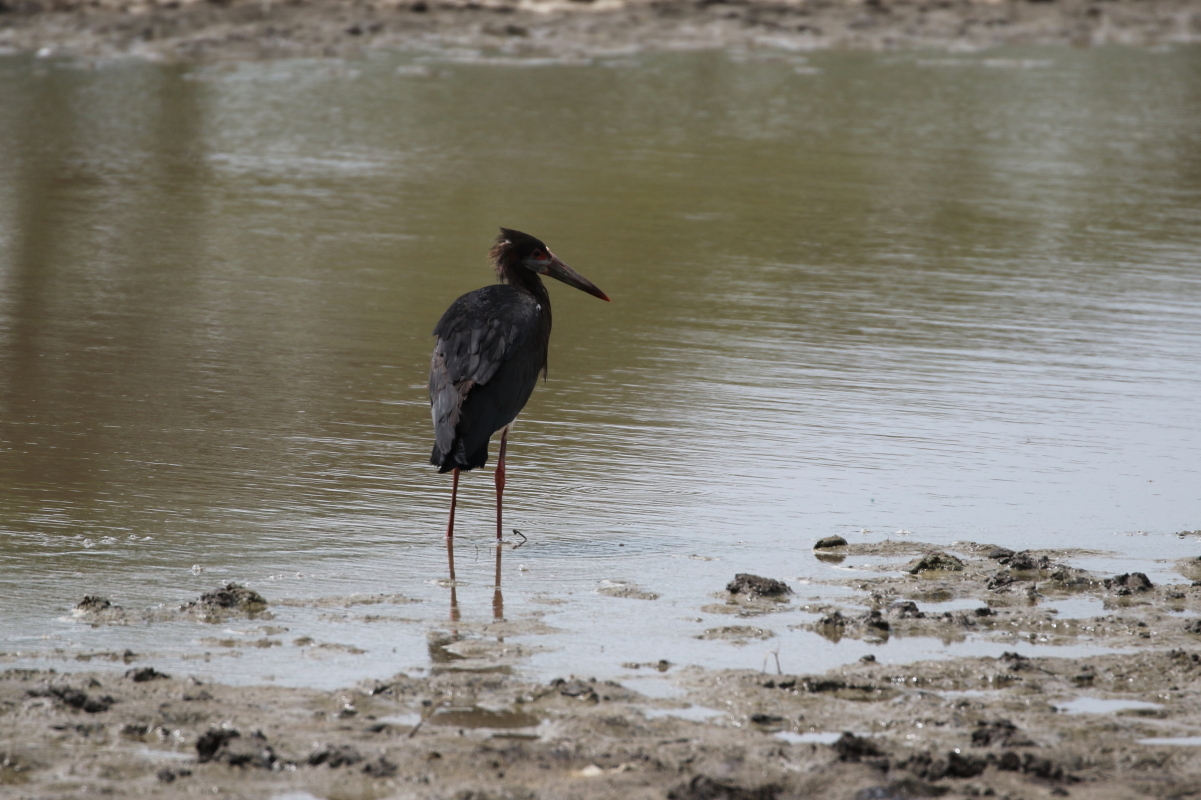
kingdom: Animalia
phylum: Chordata
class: Aves
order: Ciconiiformes
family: Ciconiidae
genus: Ciconia
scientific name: Ciconia abdimii
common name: Abdim's stork
